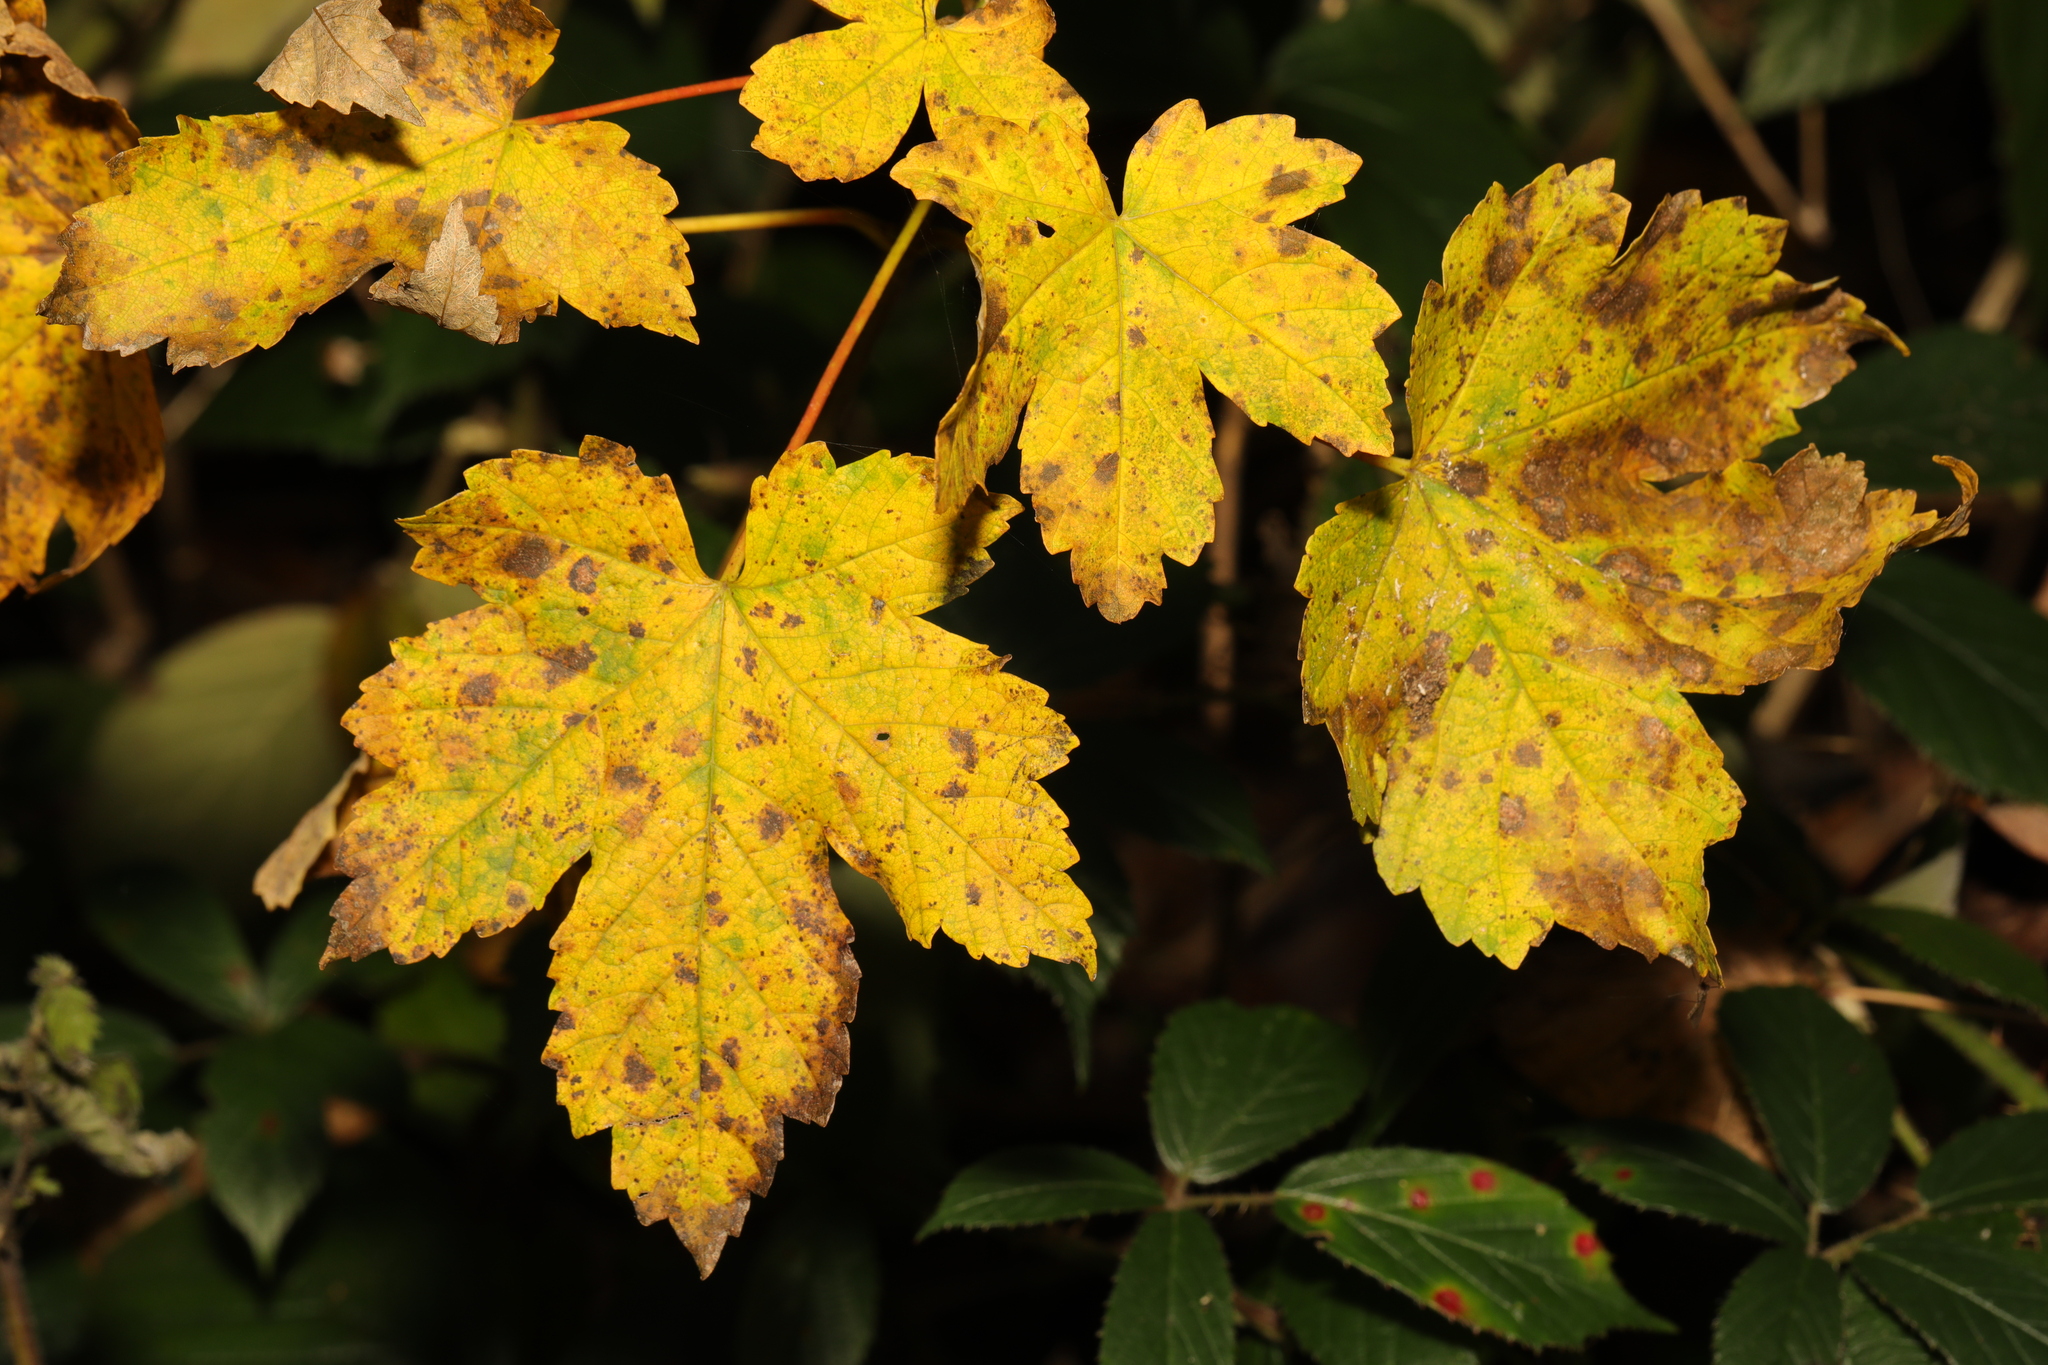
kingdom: Plantae
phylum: Tracheophyta
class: Magnoliopsida
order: Sapindales
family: Sapindaceae
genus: Acer
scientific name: Acer pseudoplatanus
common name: Sycamore
